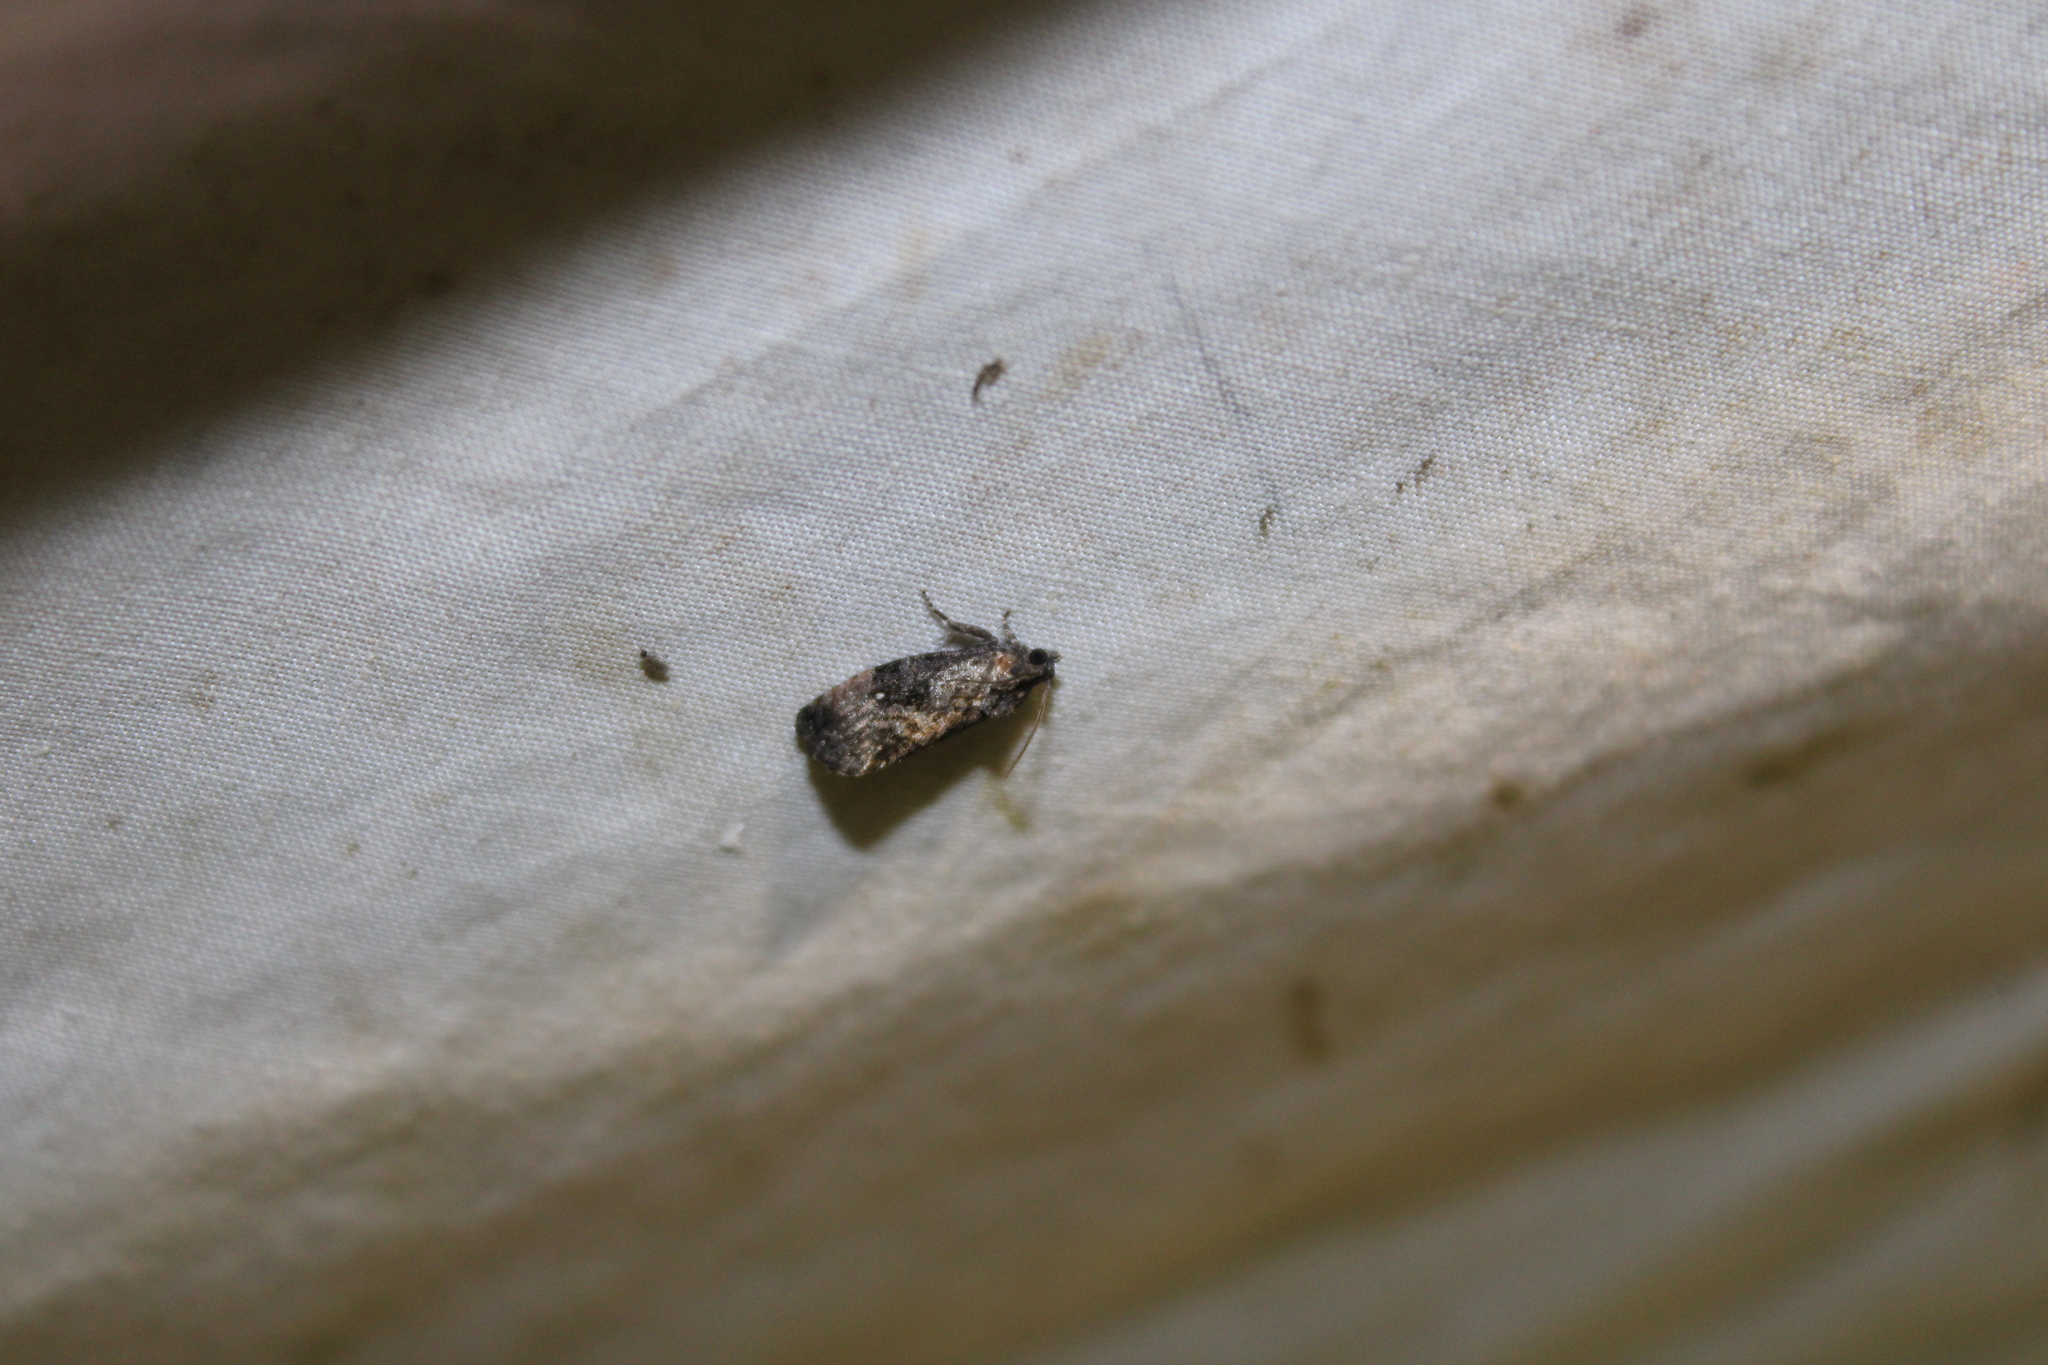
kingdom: Animalia
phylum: Arthropoda
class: Insecta
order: Lepidoptera
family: Tortricidae
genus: Gymnandrosoma
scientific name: Gymnandrosoma punctidiscanum
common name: Dotted ecdytolopha moth
